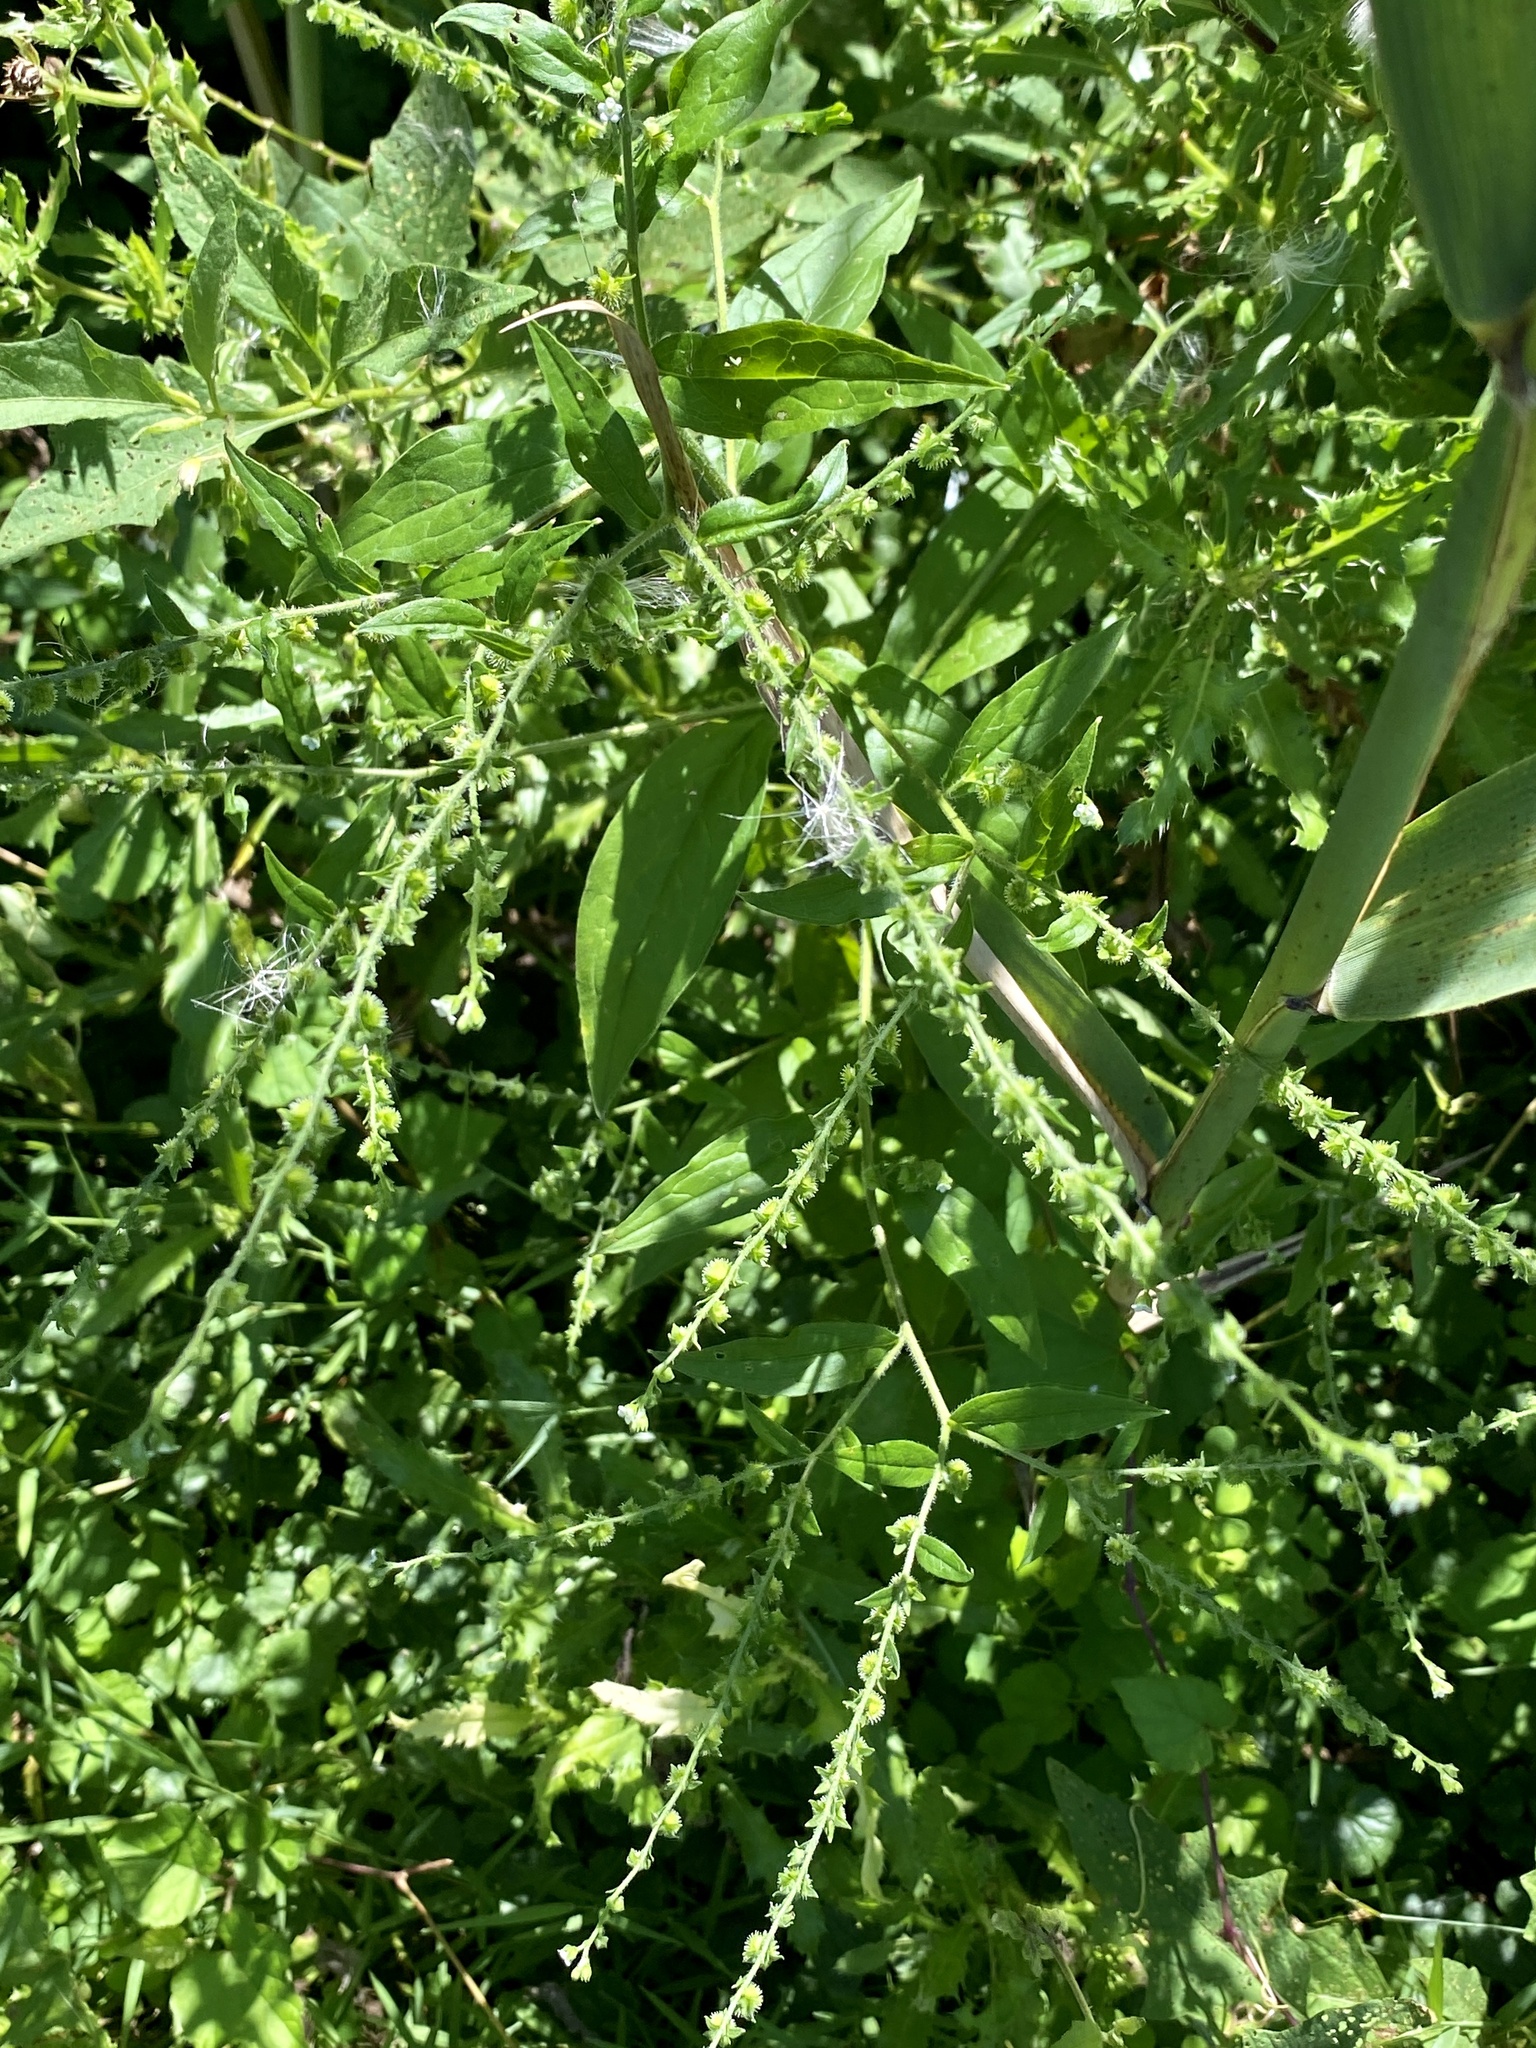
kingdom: Plantae
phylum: Tracheophyta
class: Magnoliopsida
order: Boraginales
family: Boraginaceae
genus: Hackelia
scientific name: Hackelia virginiana
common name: Beggar's-lice
